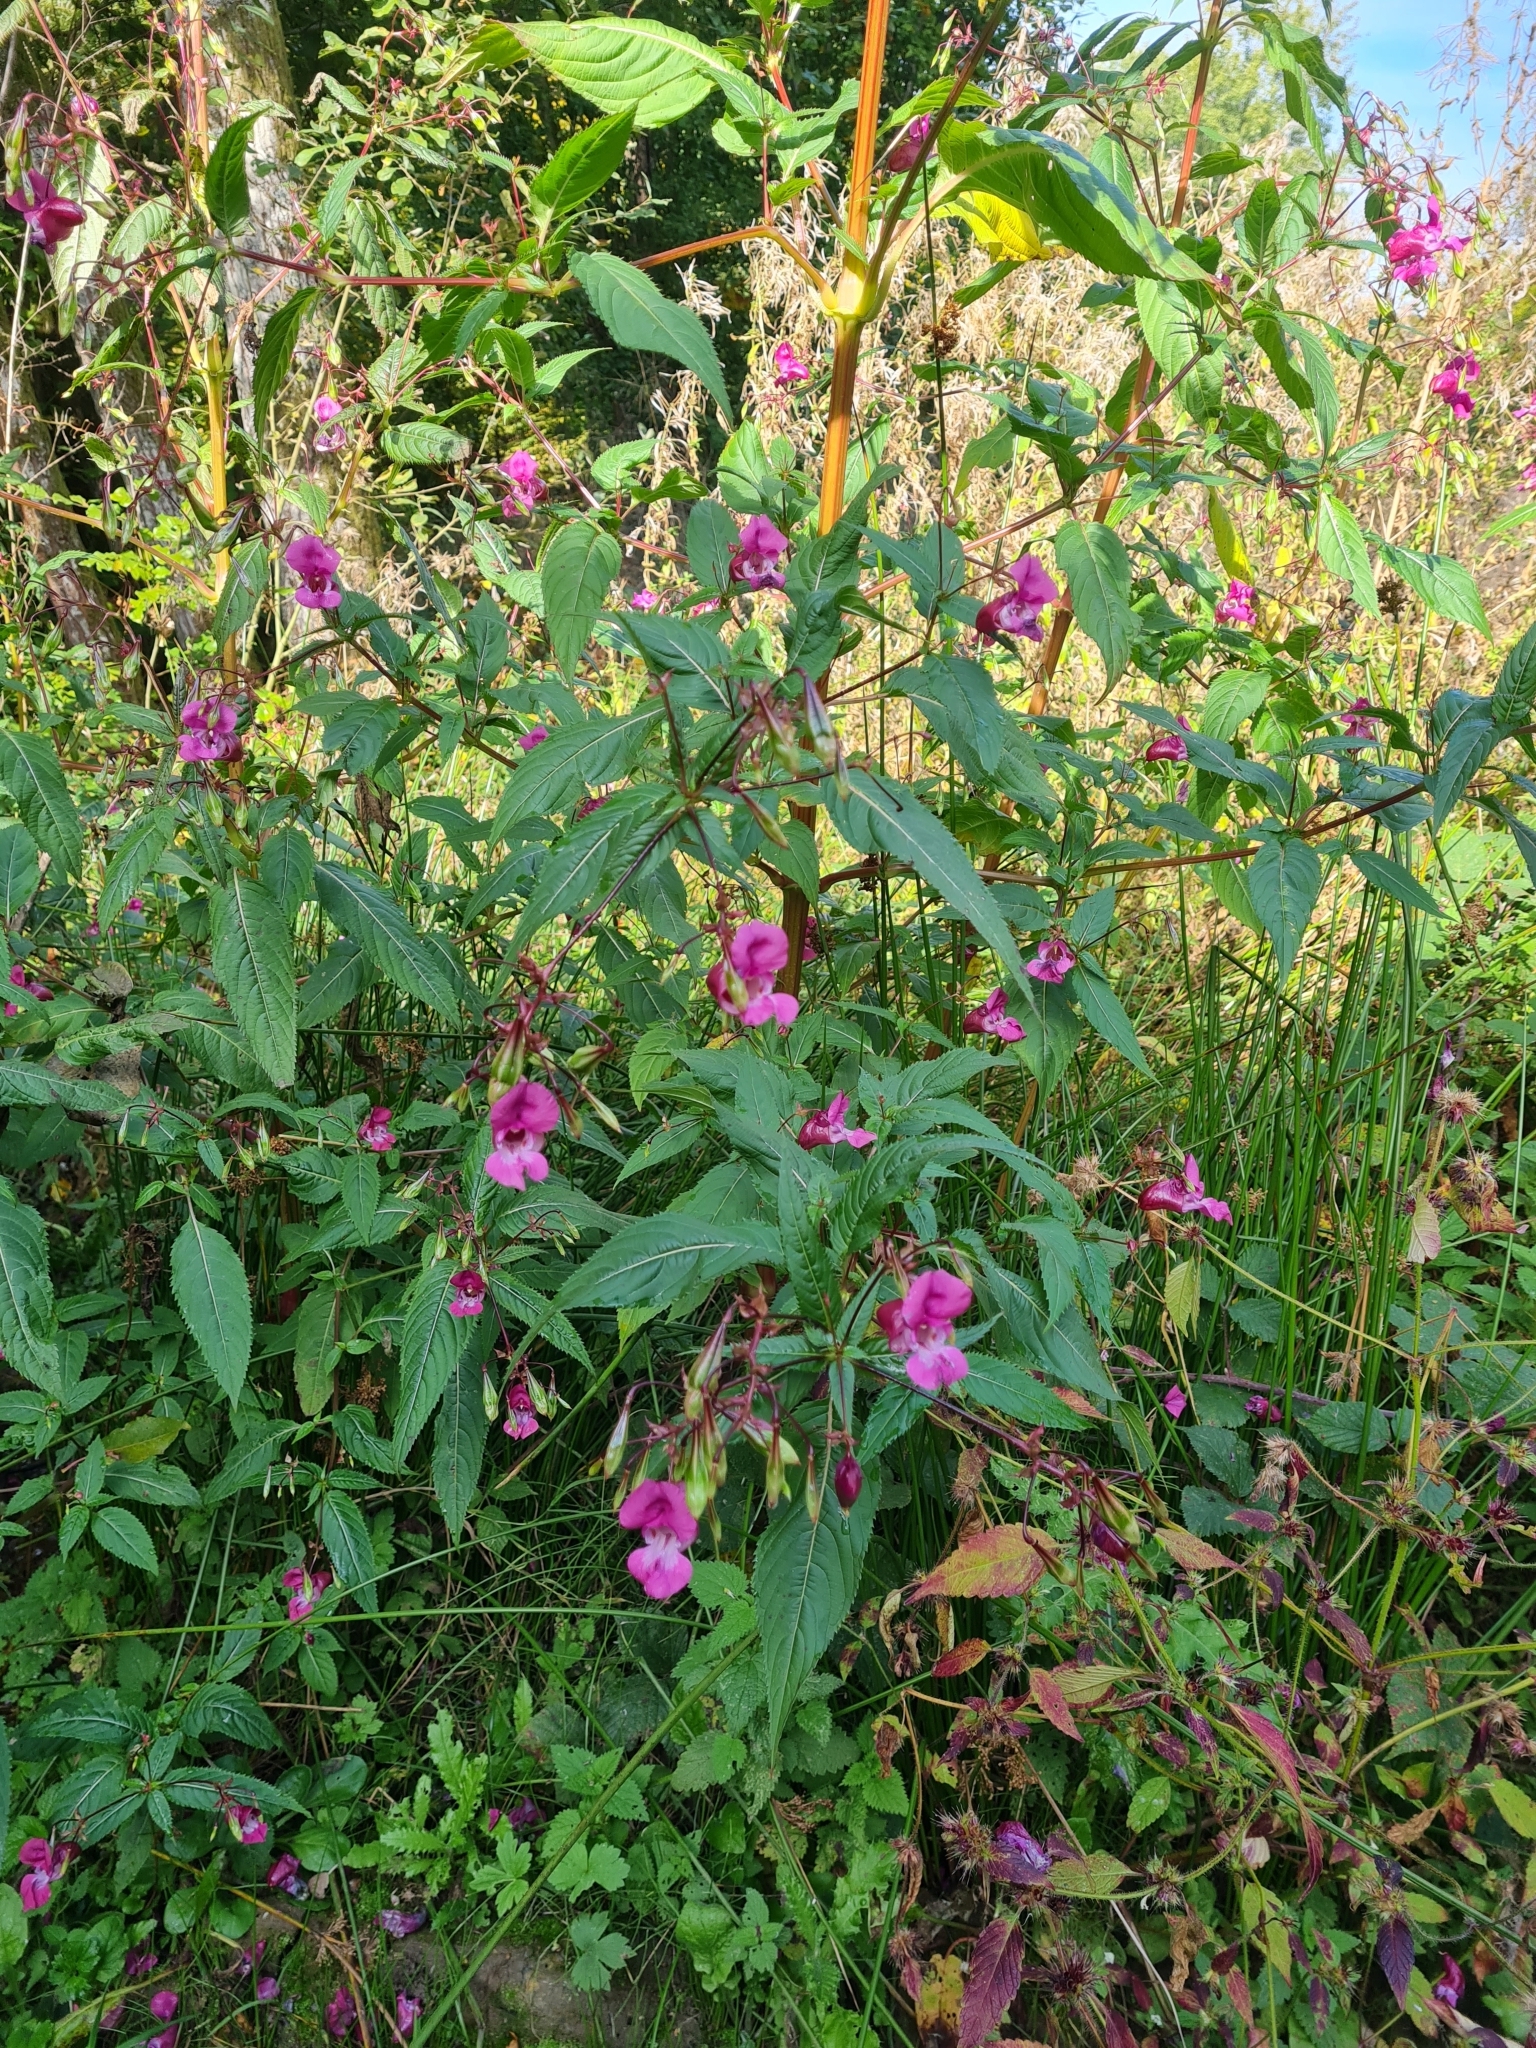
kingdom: Plantae
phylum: Tracheophyta
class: Magnoliopsida
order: Ericales
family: Balsaminaceae
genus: Impatiens
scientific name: Impatiens glandulifera
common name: Himalayan balsam
